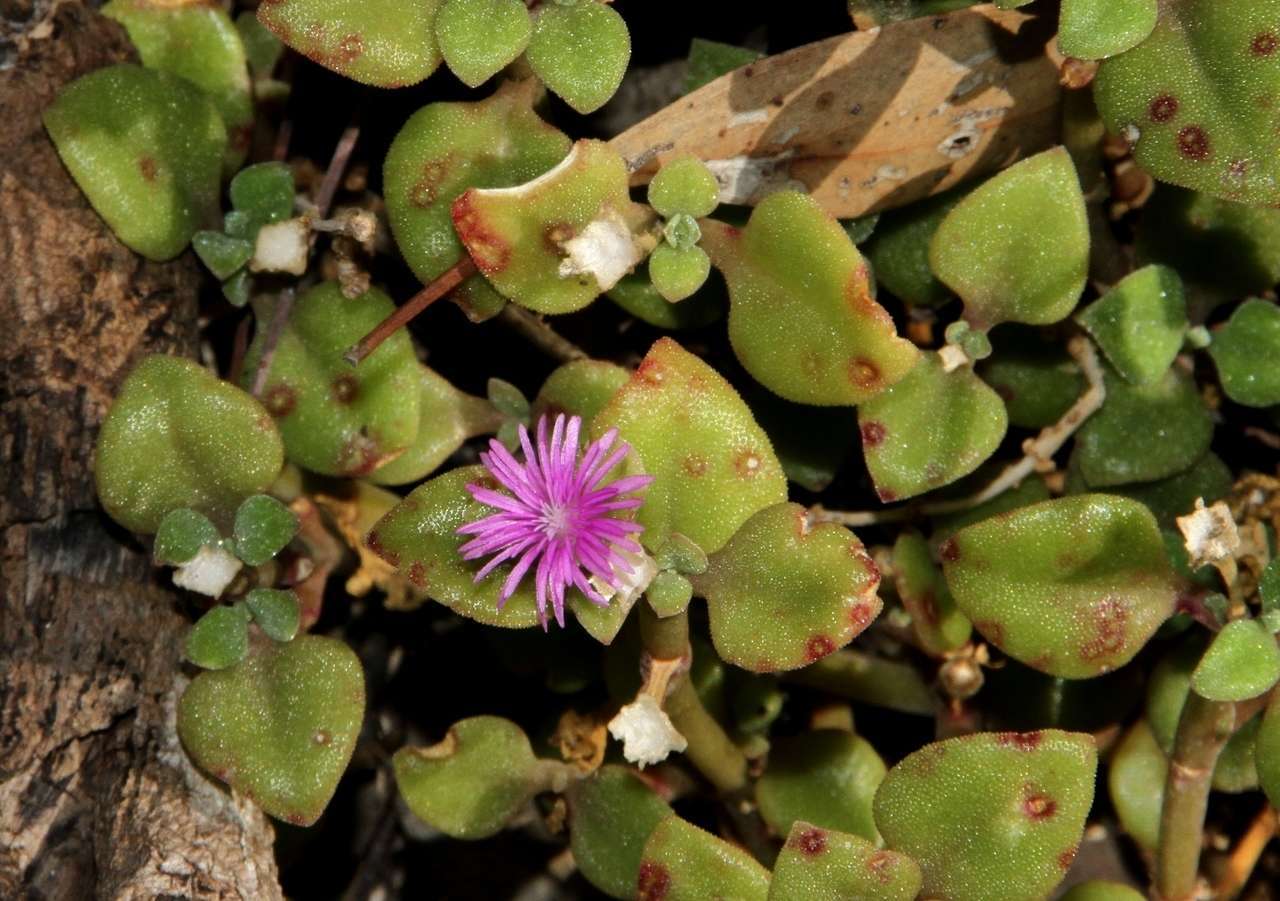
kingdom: Plantae
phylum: Tracheophyta
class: Magnoliopsida
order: Caryophyllales
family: Aizoaceae
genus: Mesembryanthemum
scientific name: Mesembryanthemum cordifolium
